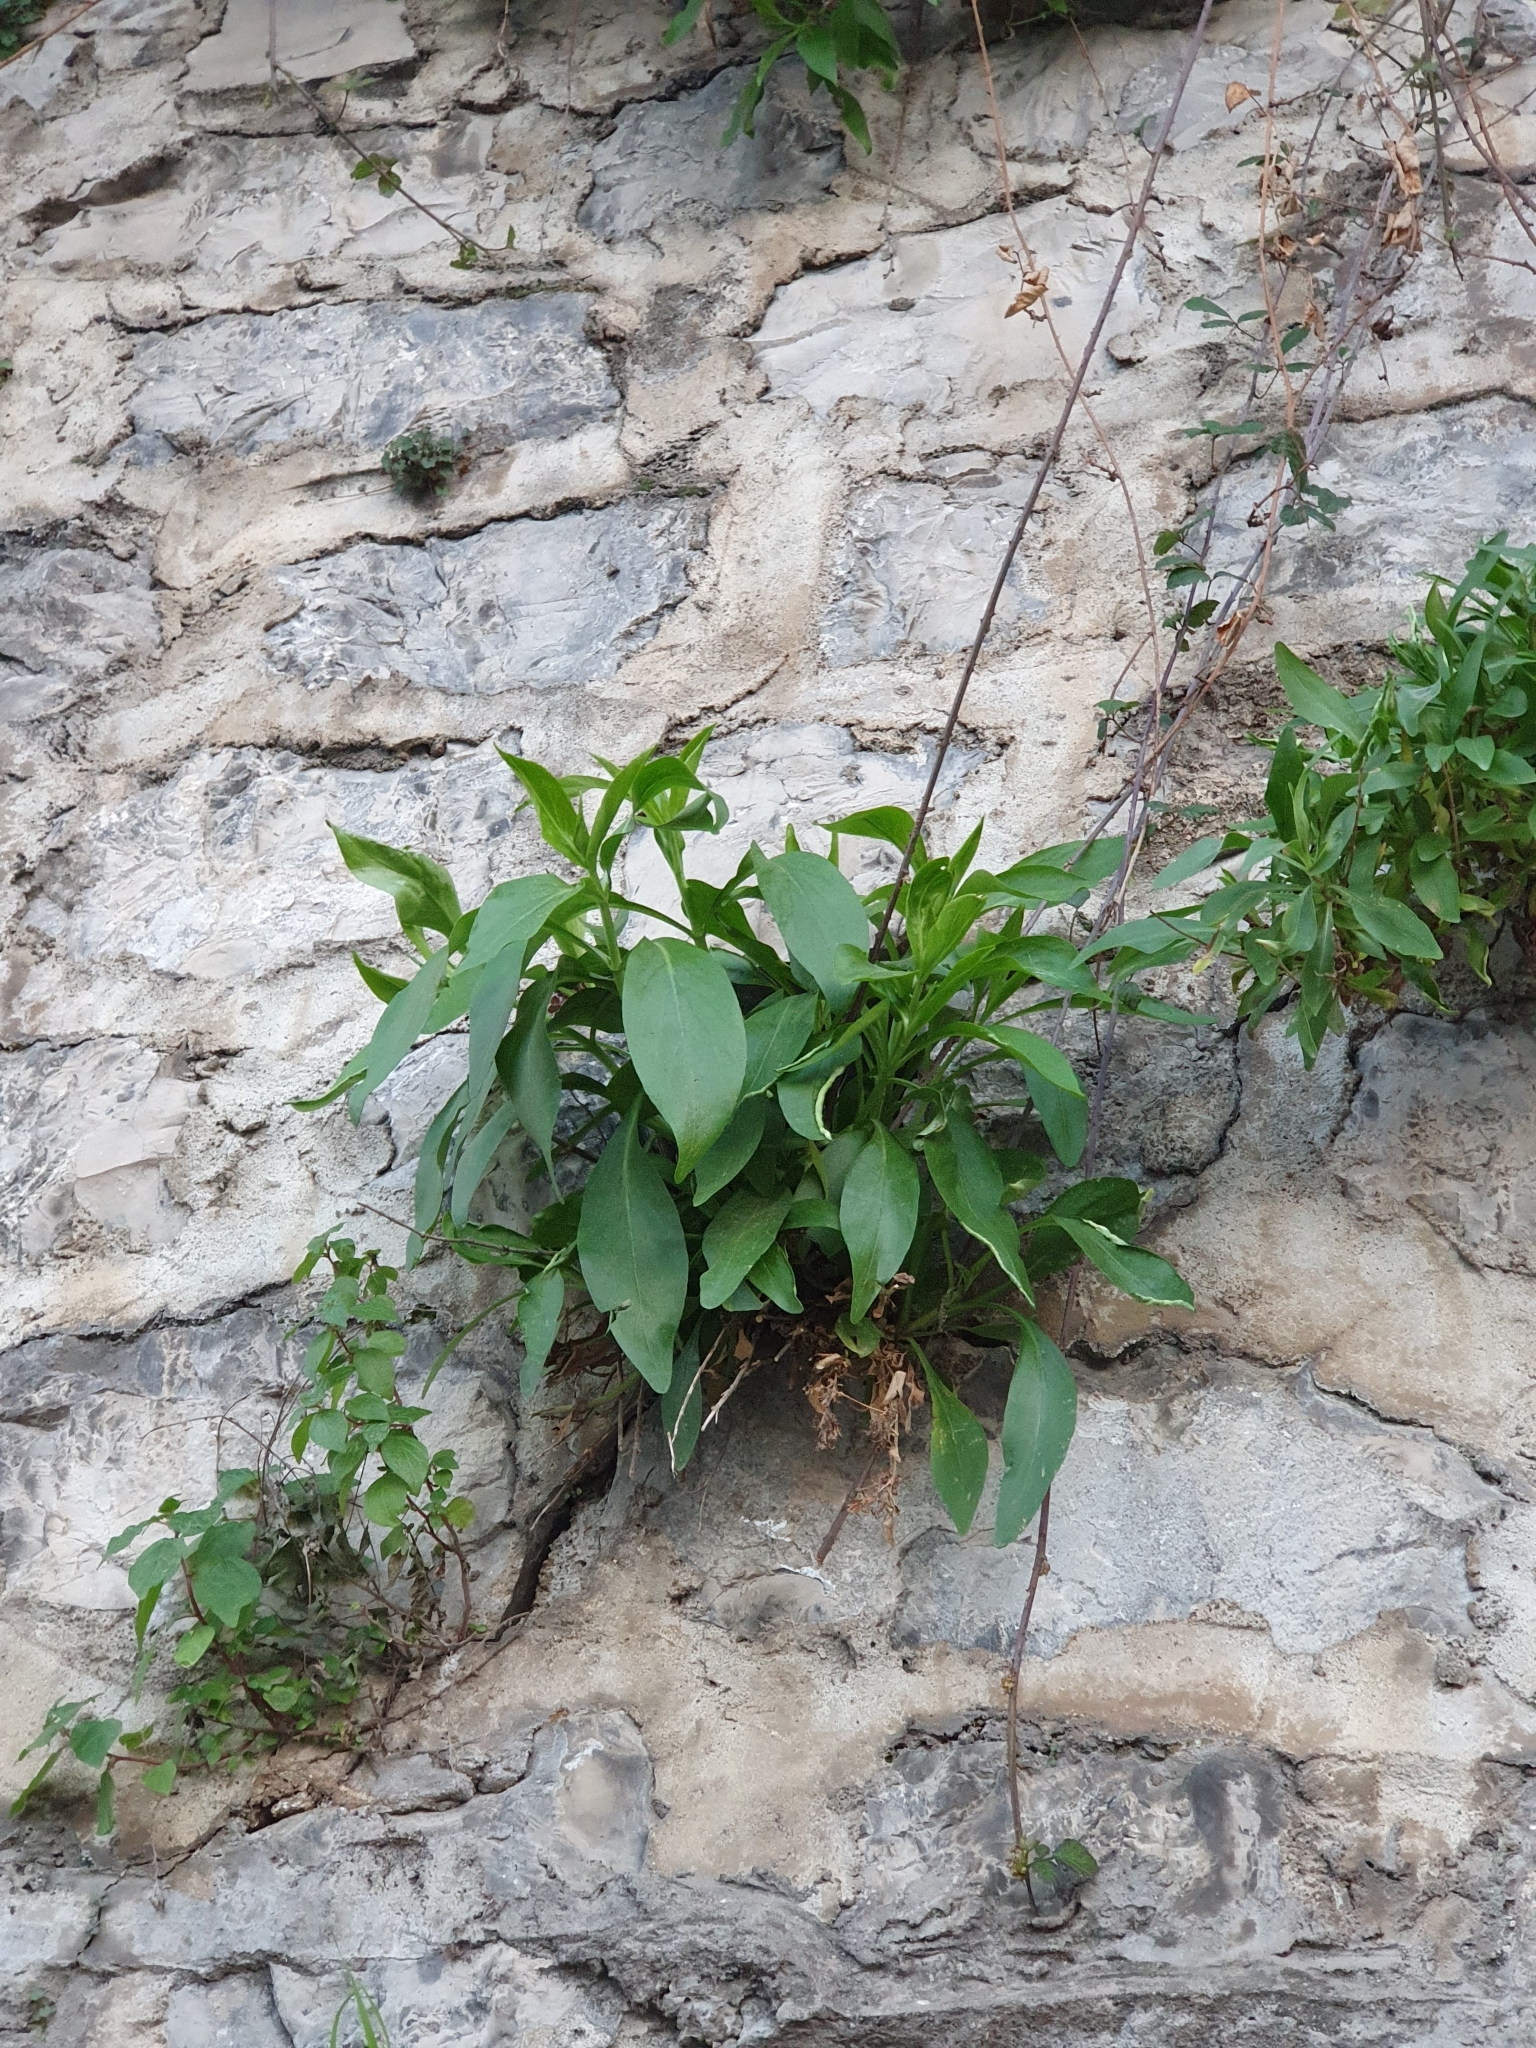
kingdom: Plantae
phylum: Tracheophyta
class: Magnoliopsida
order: Dipsacales
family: Caprifoliaceae
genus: Centranthus
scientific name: Centranthus ruber
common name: Red valerian
